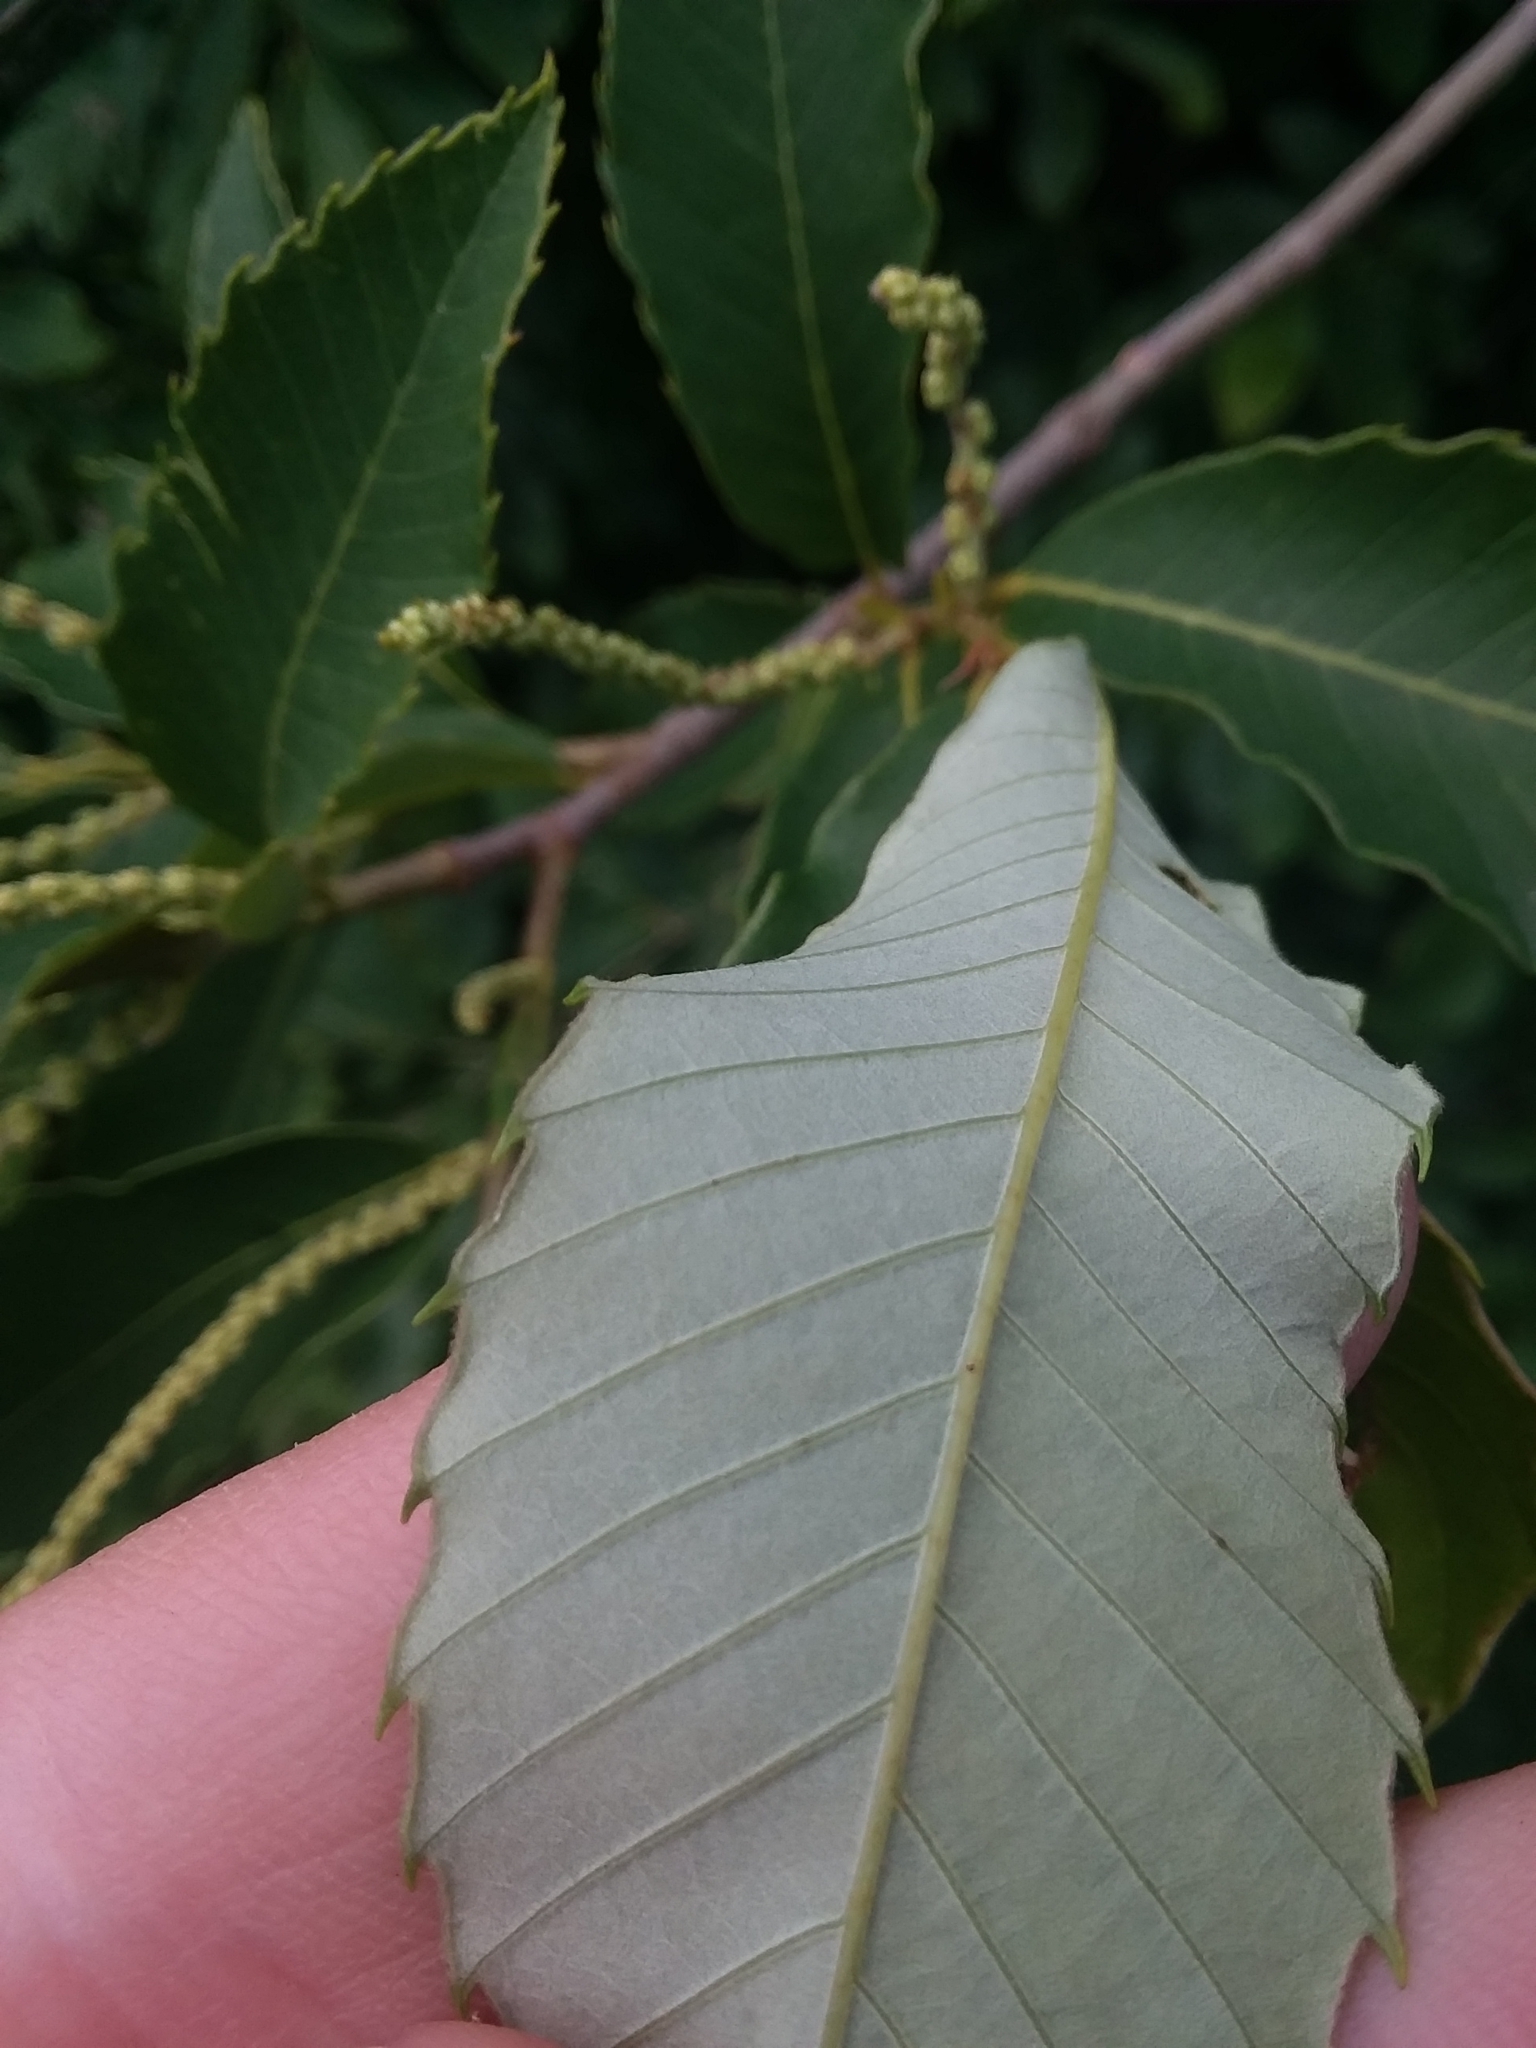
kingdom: Plantae
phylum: Tracheophyta
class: Magnoliopsida
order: Fagales
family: Fagaceae
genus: Castanea
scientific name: Castanea pumila
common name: Chinkapin
